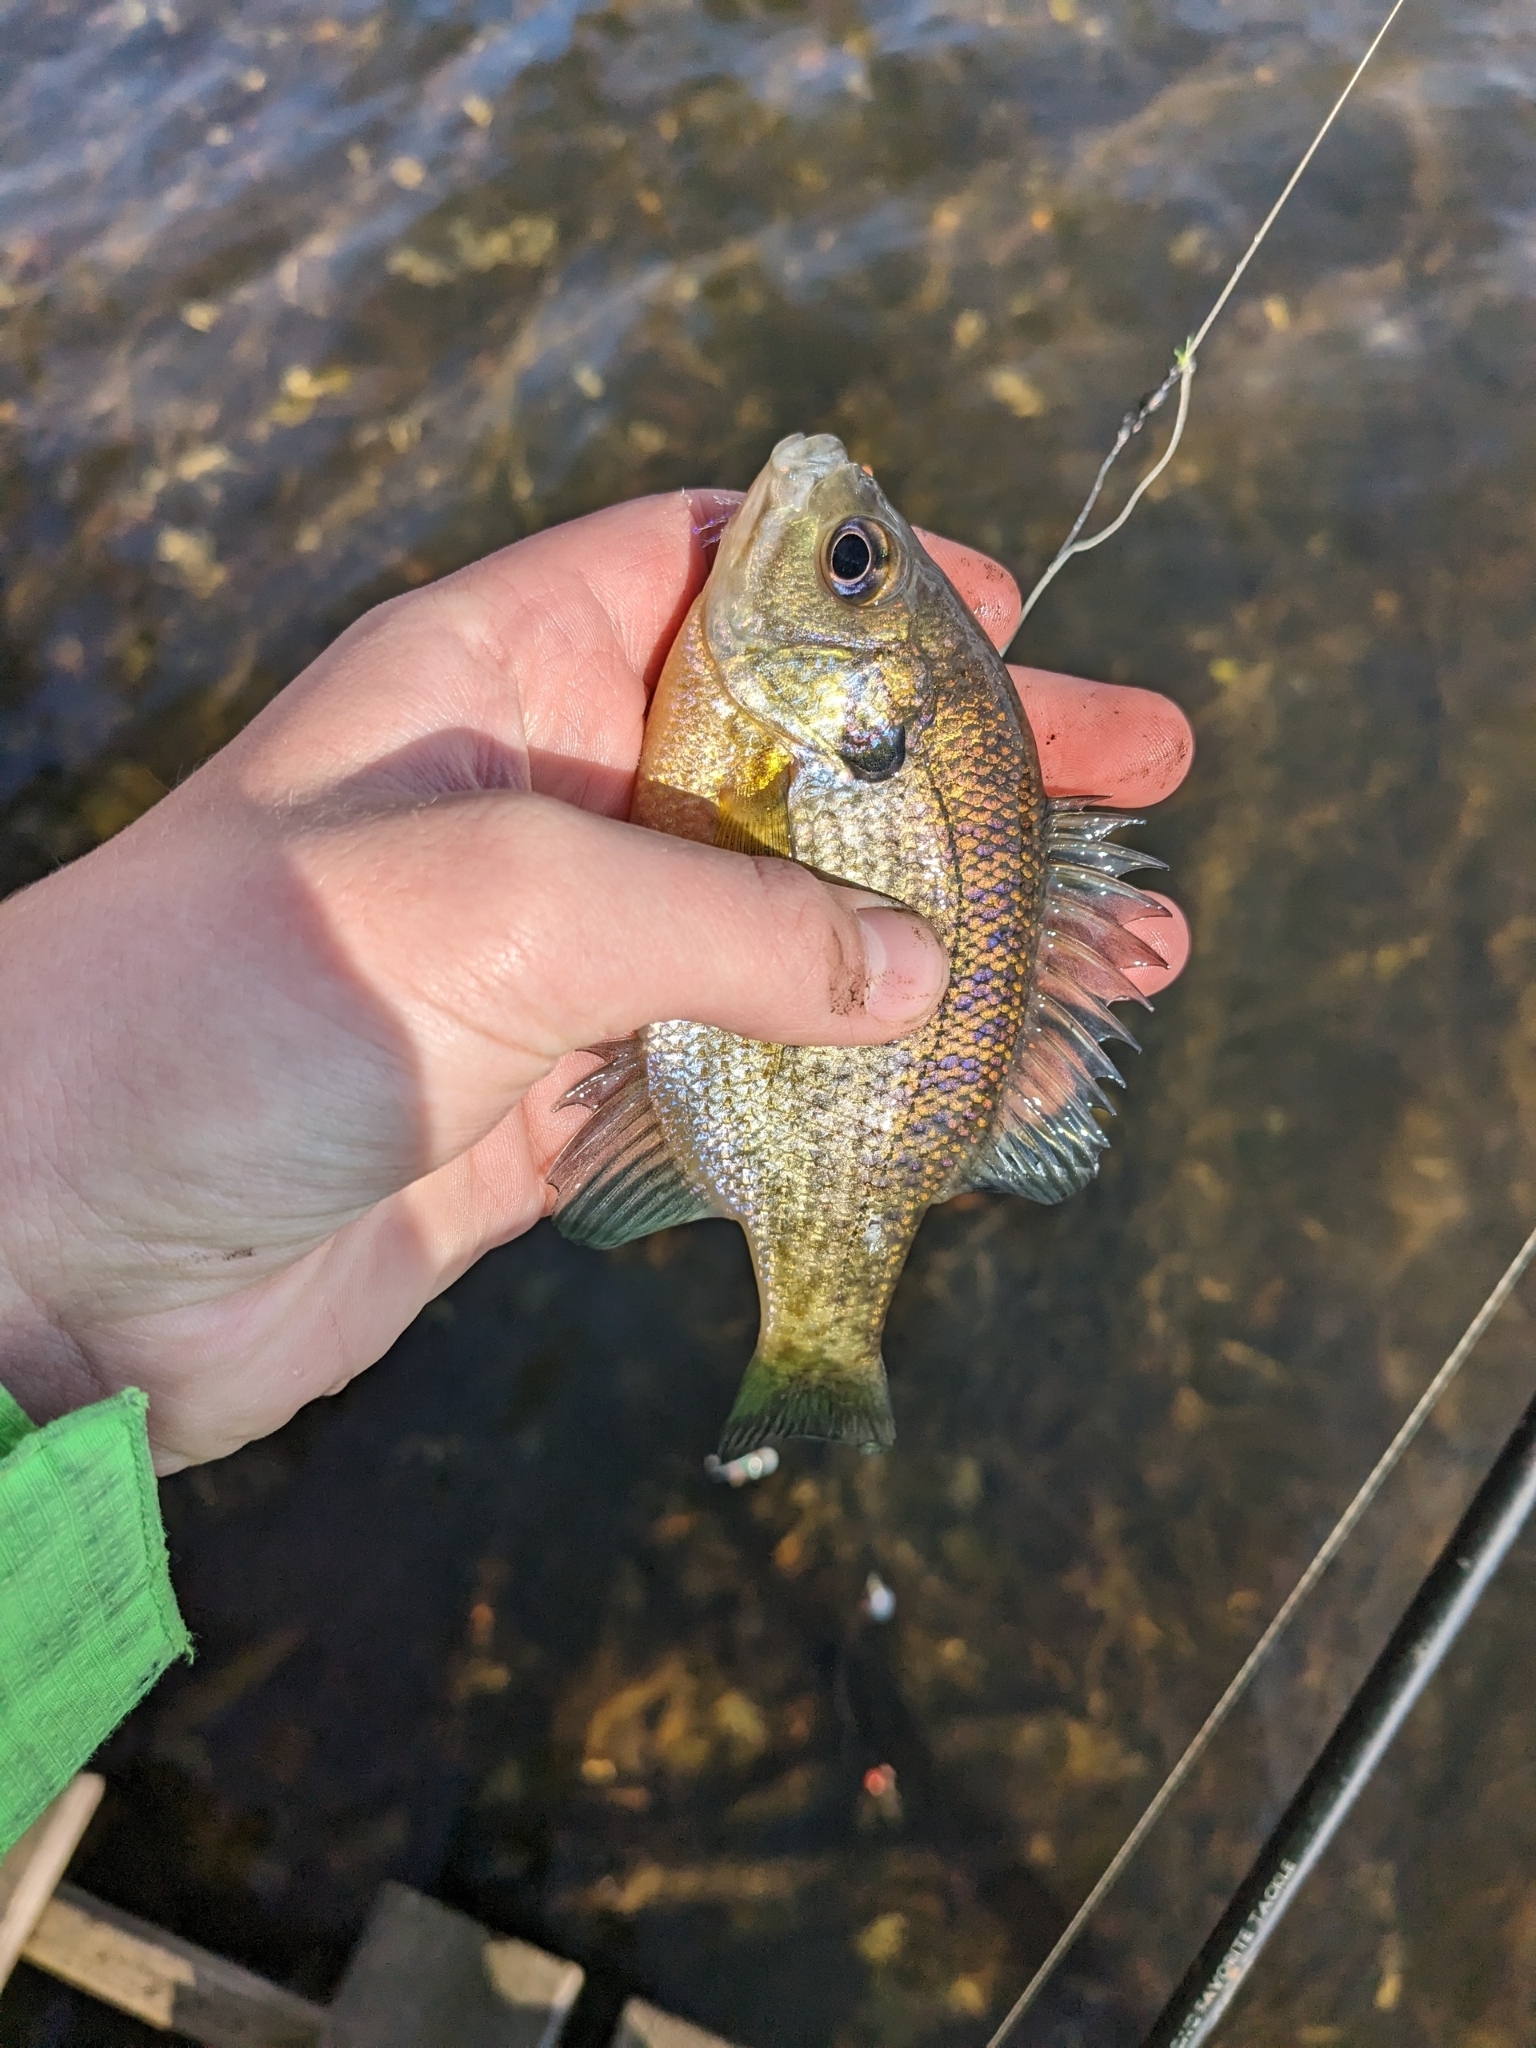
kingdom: Animalia
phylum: Chordata
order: Perciformes
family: Centrarchidae
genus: Lepomis
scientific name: Lepomis macrochirus
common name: Bluegill
